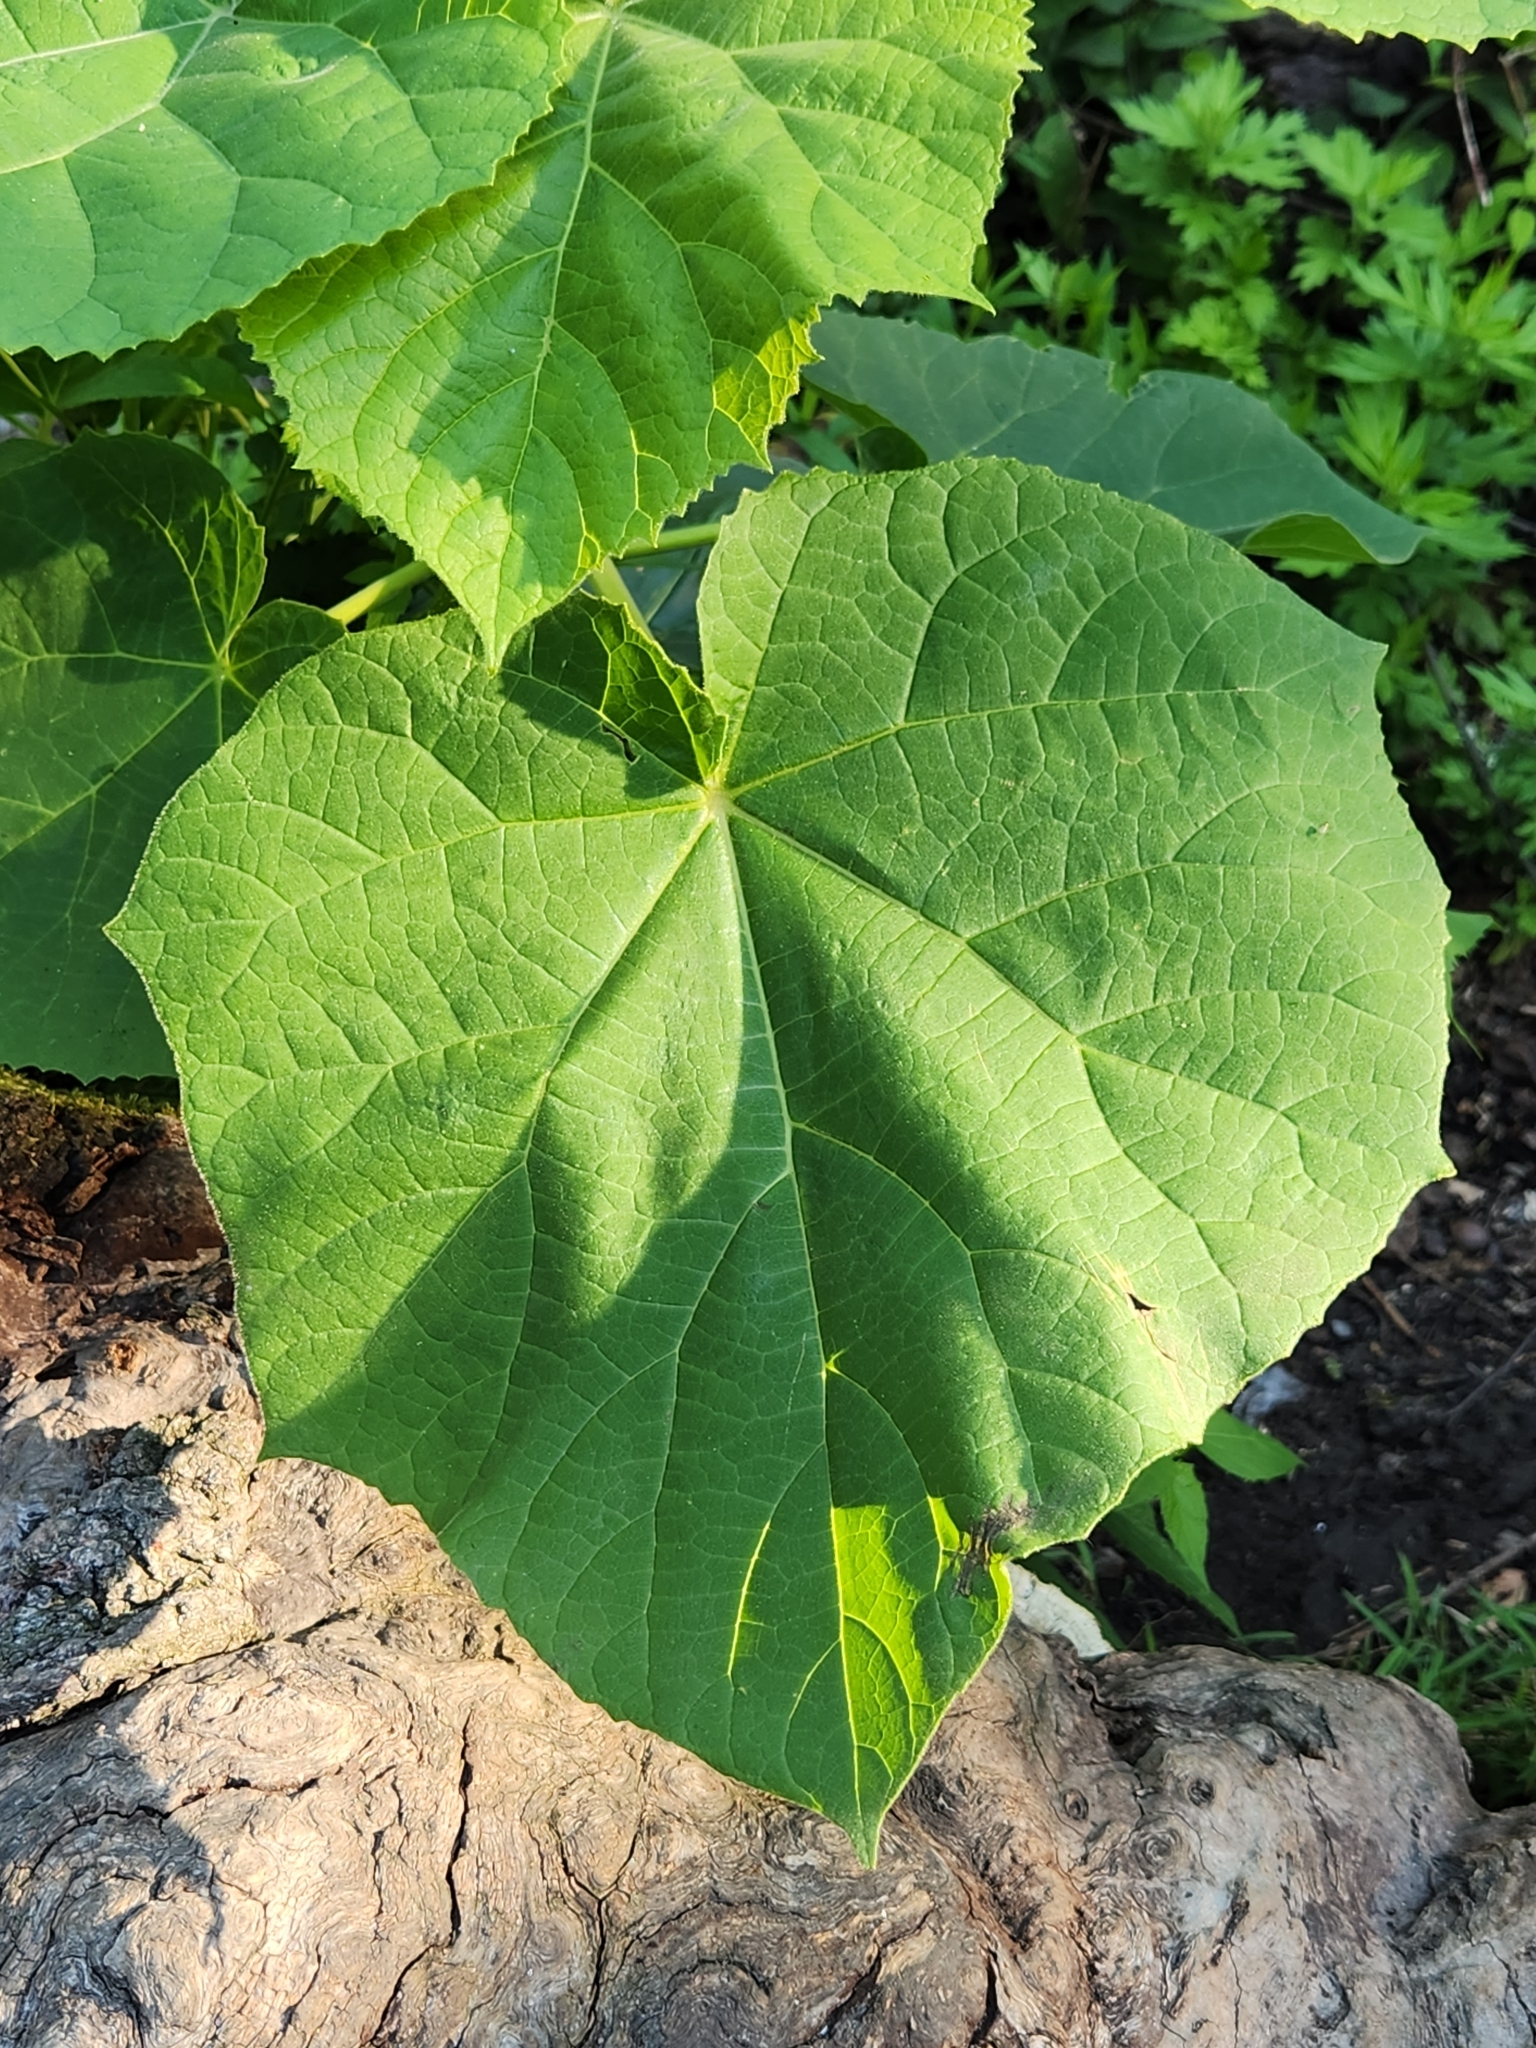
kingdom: Plantae
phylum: Tracheophyta
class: Magnoliopsida
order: Lamiales
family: Paulowniaceae
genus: Paulownia
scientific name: Paulownia tomentosa
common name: Foxglove-tree
